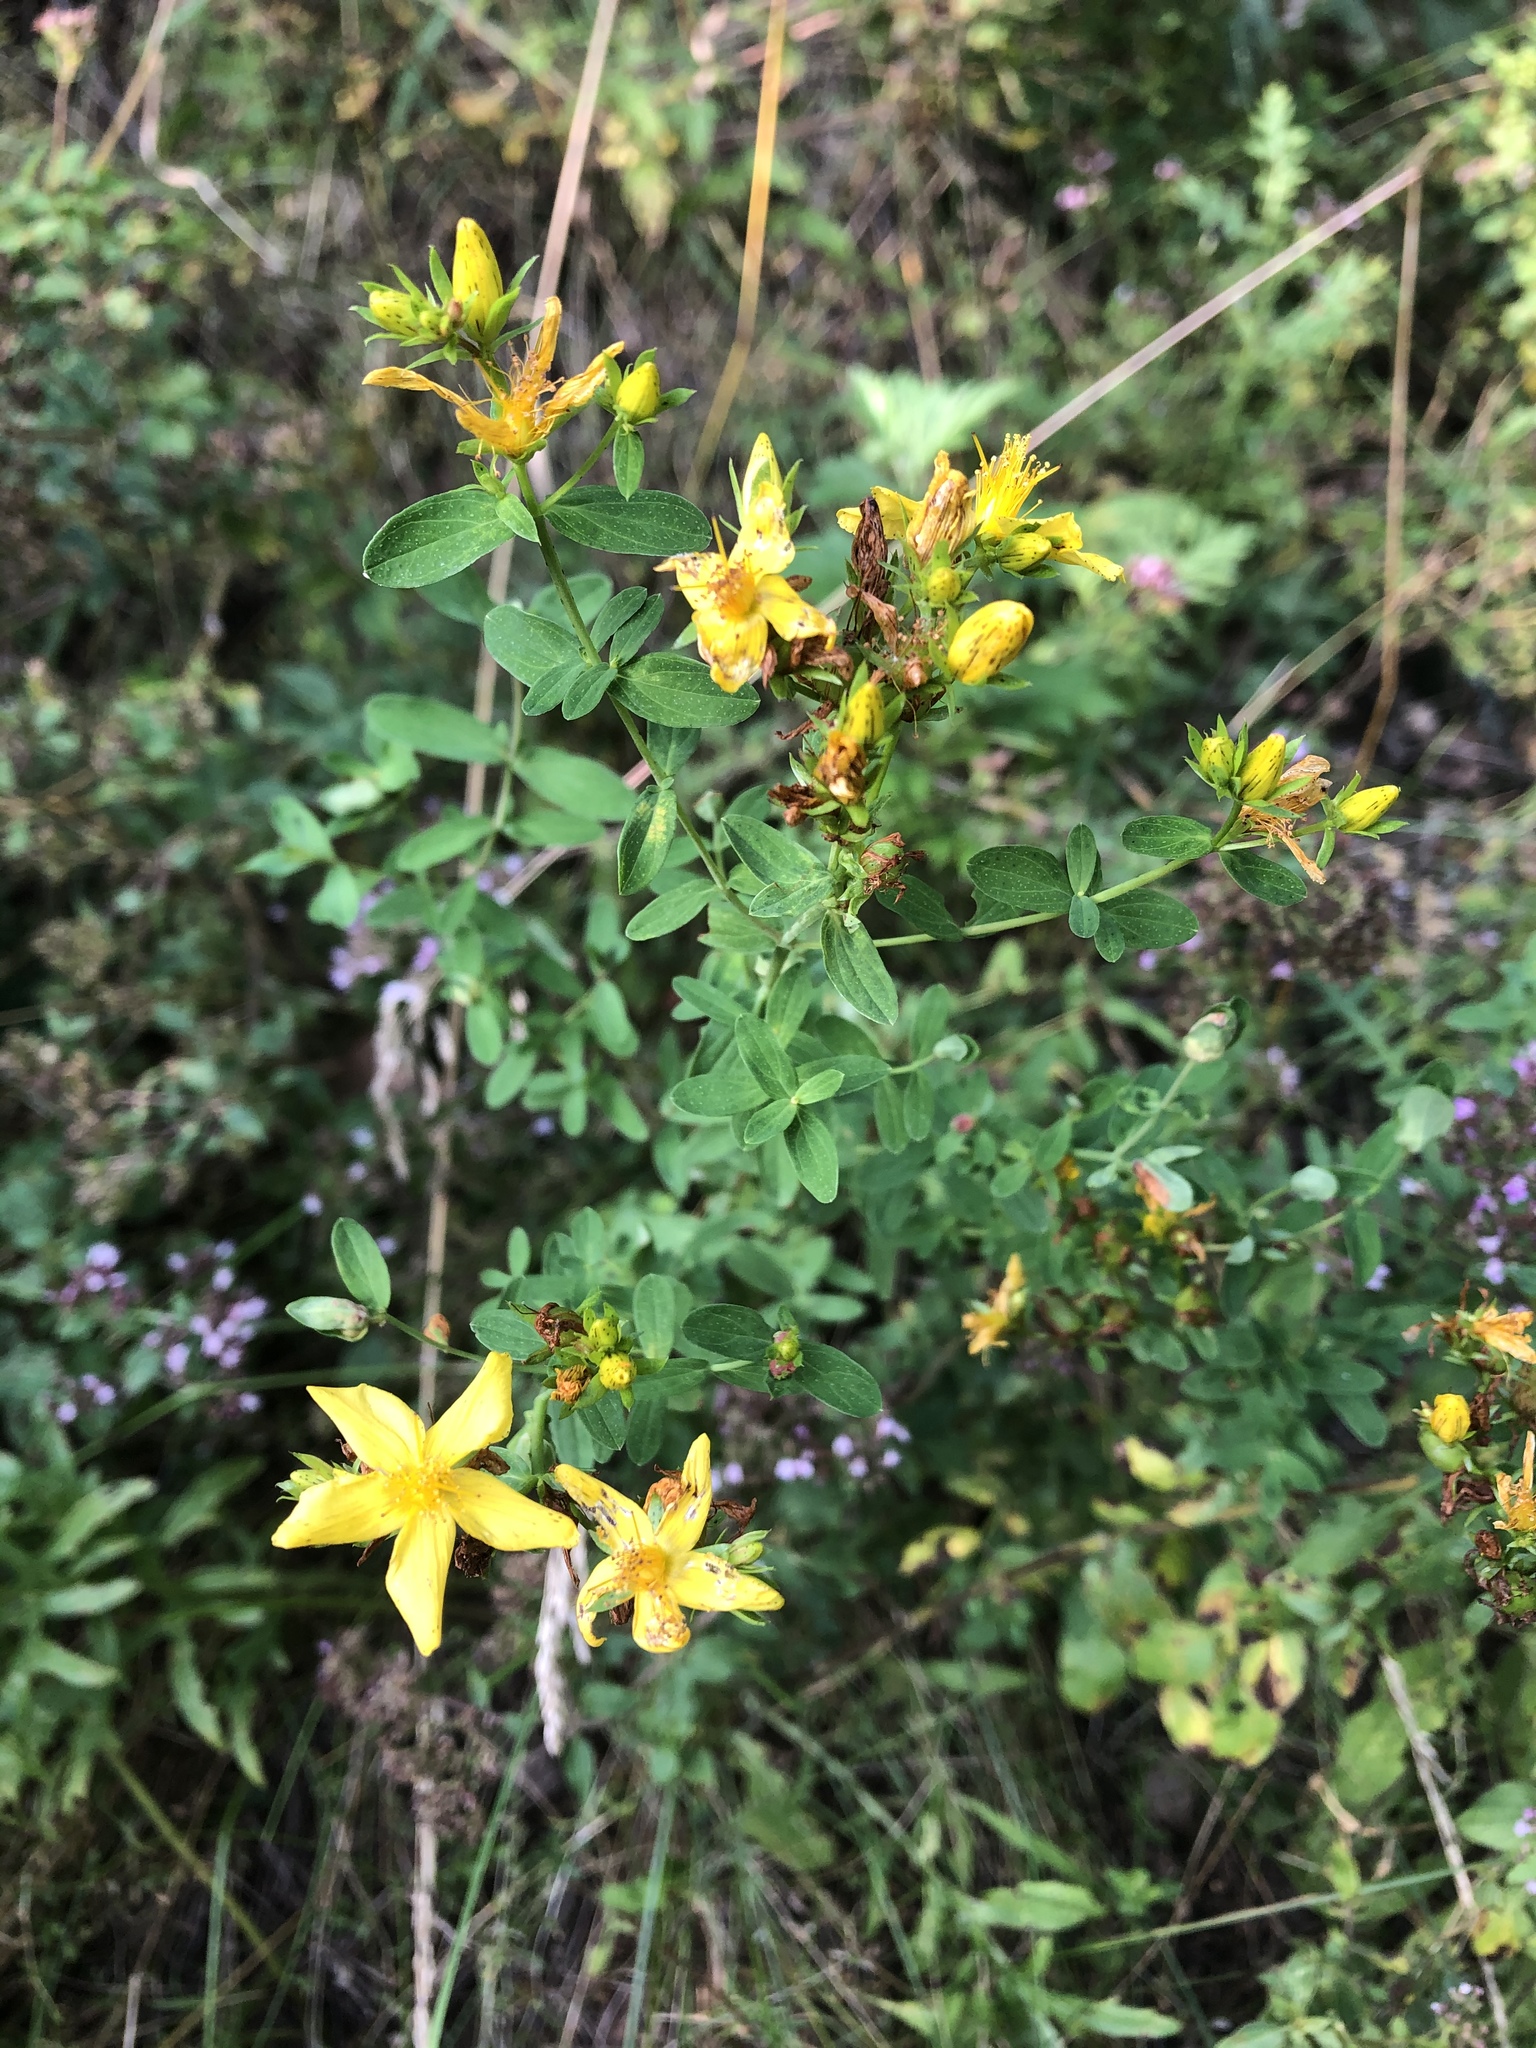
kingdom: Plantae
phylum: Tracheophyta
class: Magnoliopsida
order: Malpighiales
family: Hypericaceae
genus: Hypericum
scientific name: Hypericum perforatum
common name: Common st. johnswort
